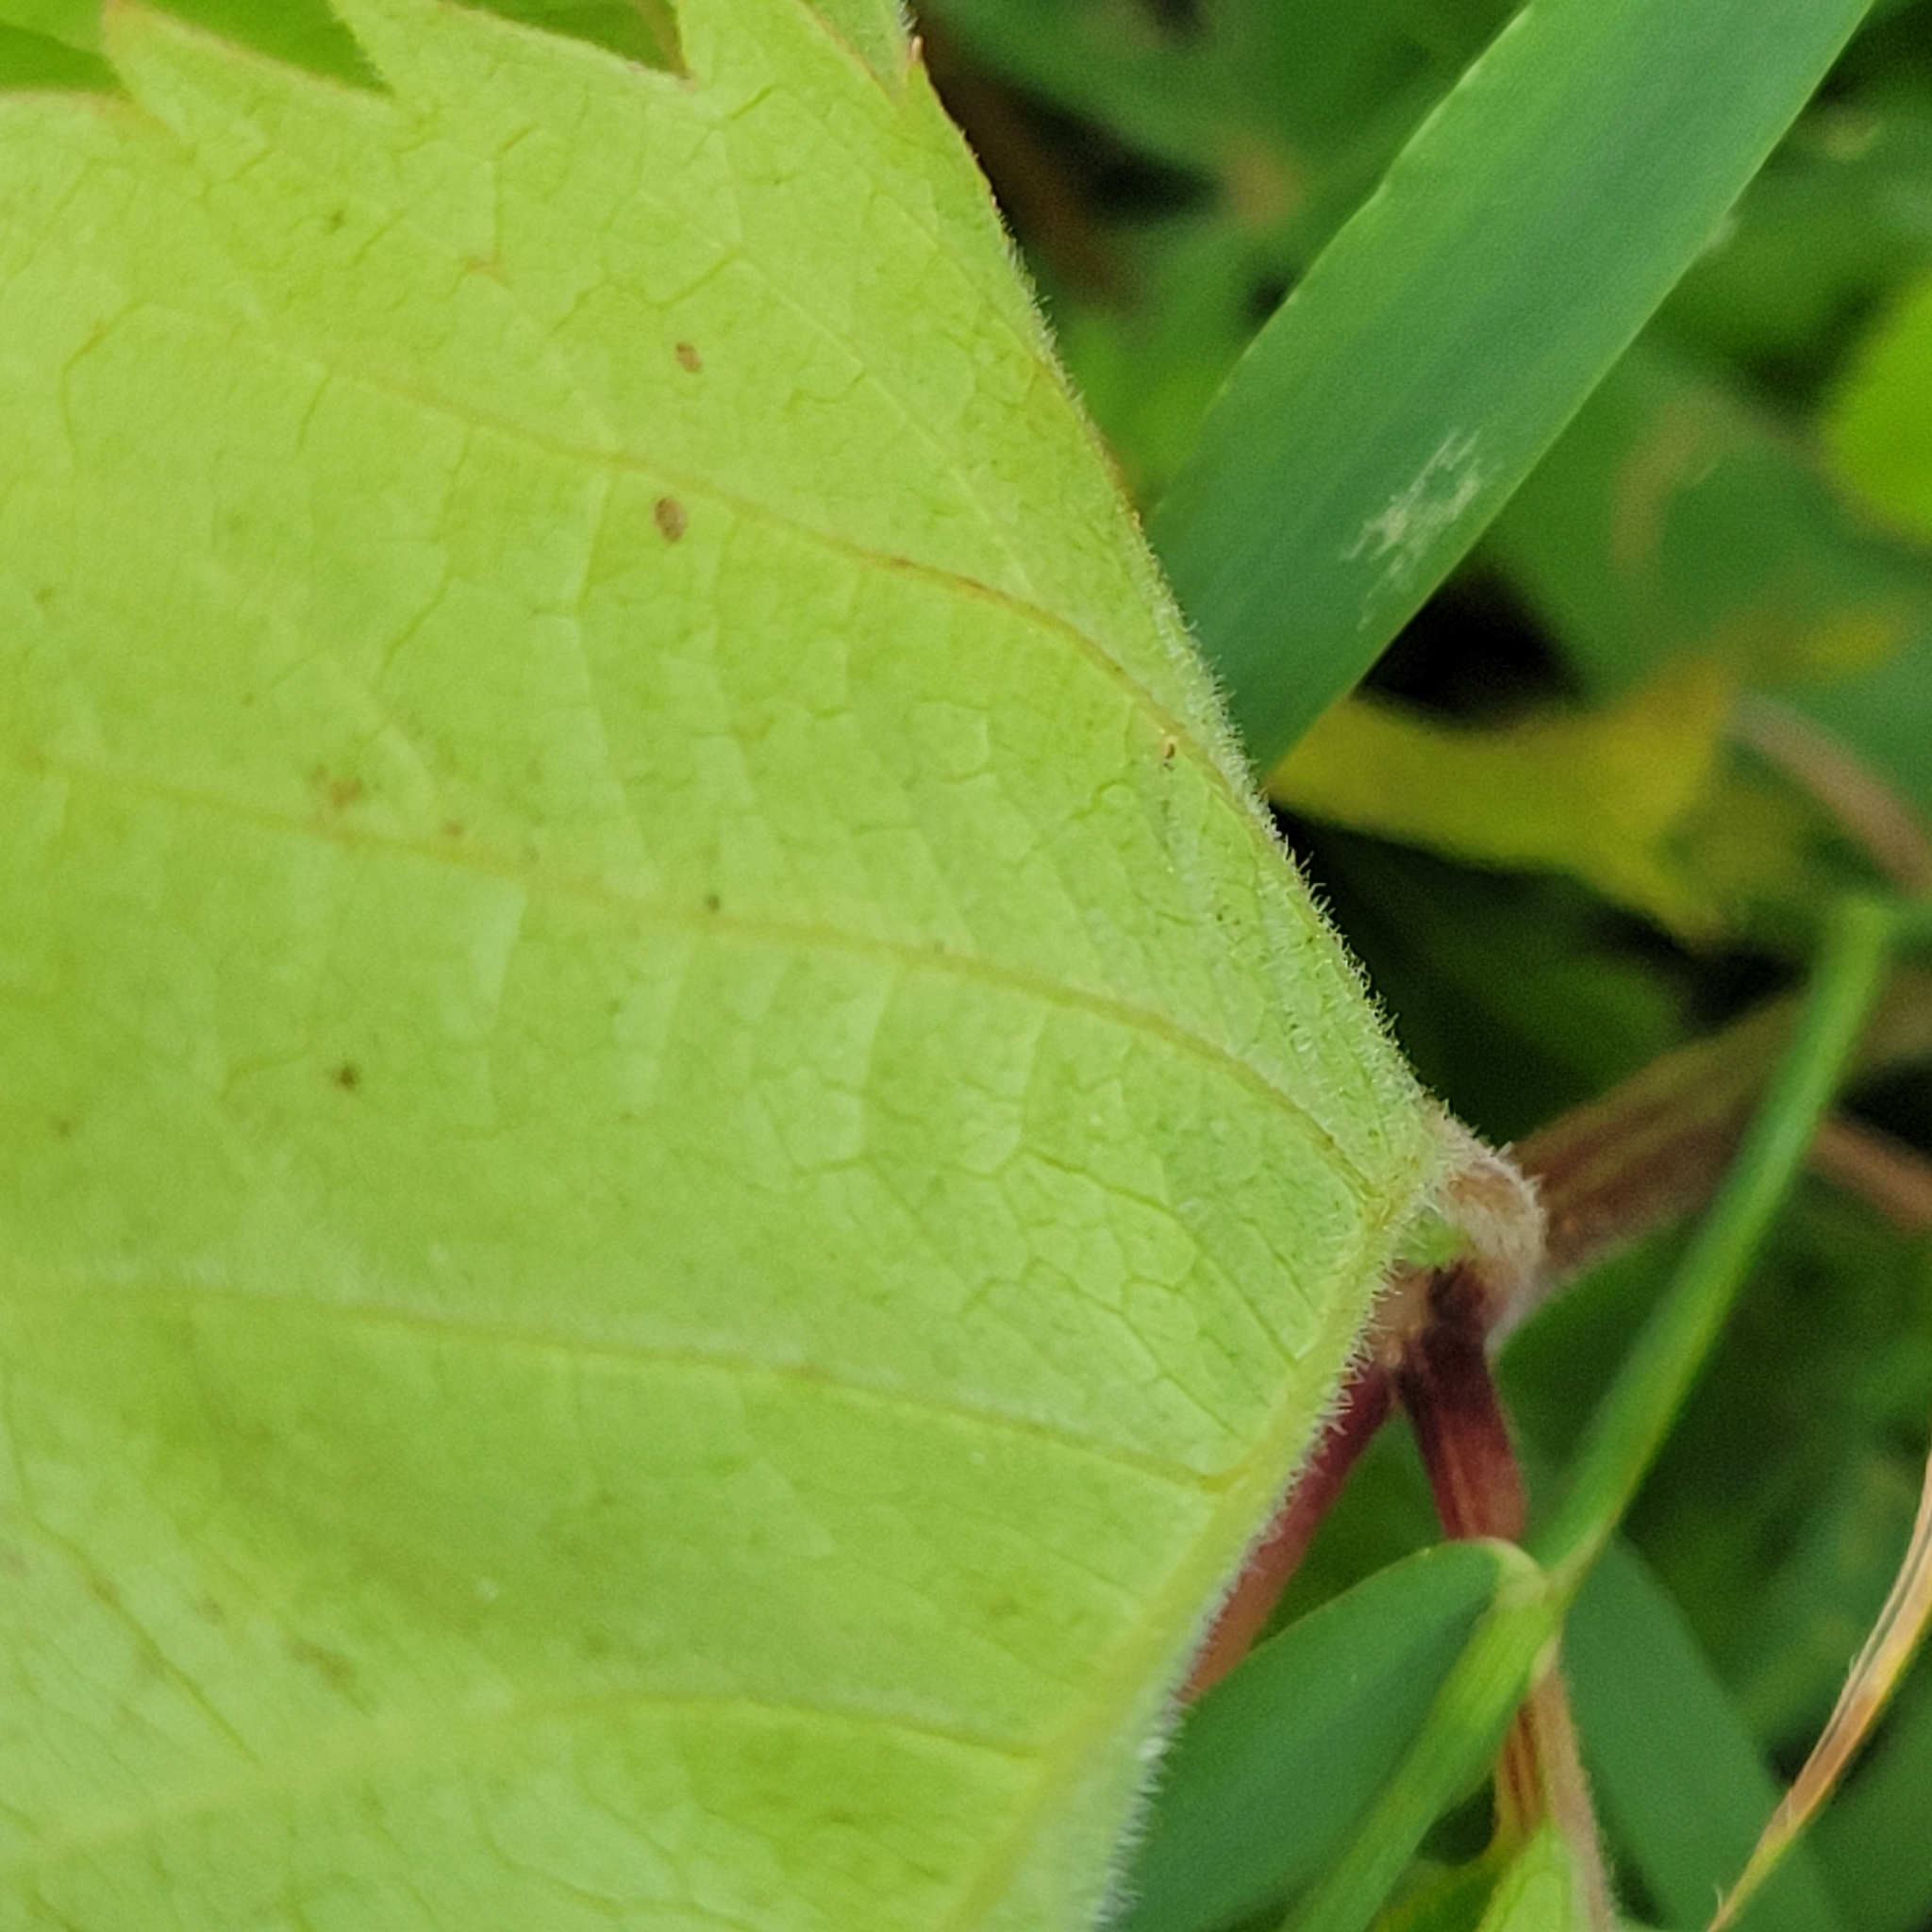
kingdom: Plantae
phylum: Tracheophyta
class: Magnoliopsida
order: Vitales
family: Vitaceae
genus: Parthenocissus
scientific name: Parthenocissus quinquefolia
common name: Virginia-creeper
